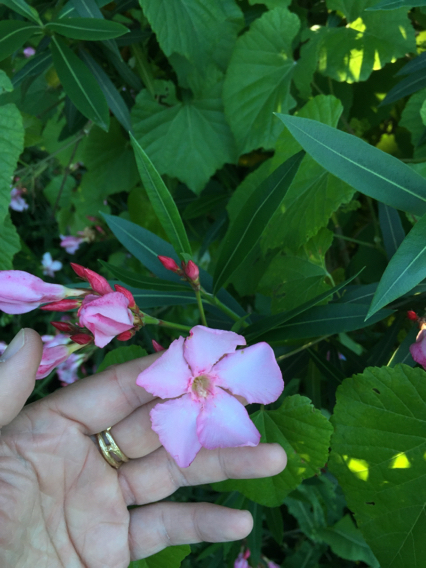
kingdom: Plantae
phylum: Tracheophyta
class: Magnoliopsida
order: Gentianales
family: Apocynaceae
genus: Nerium
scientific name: Nerium oleander
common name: Oleander
